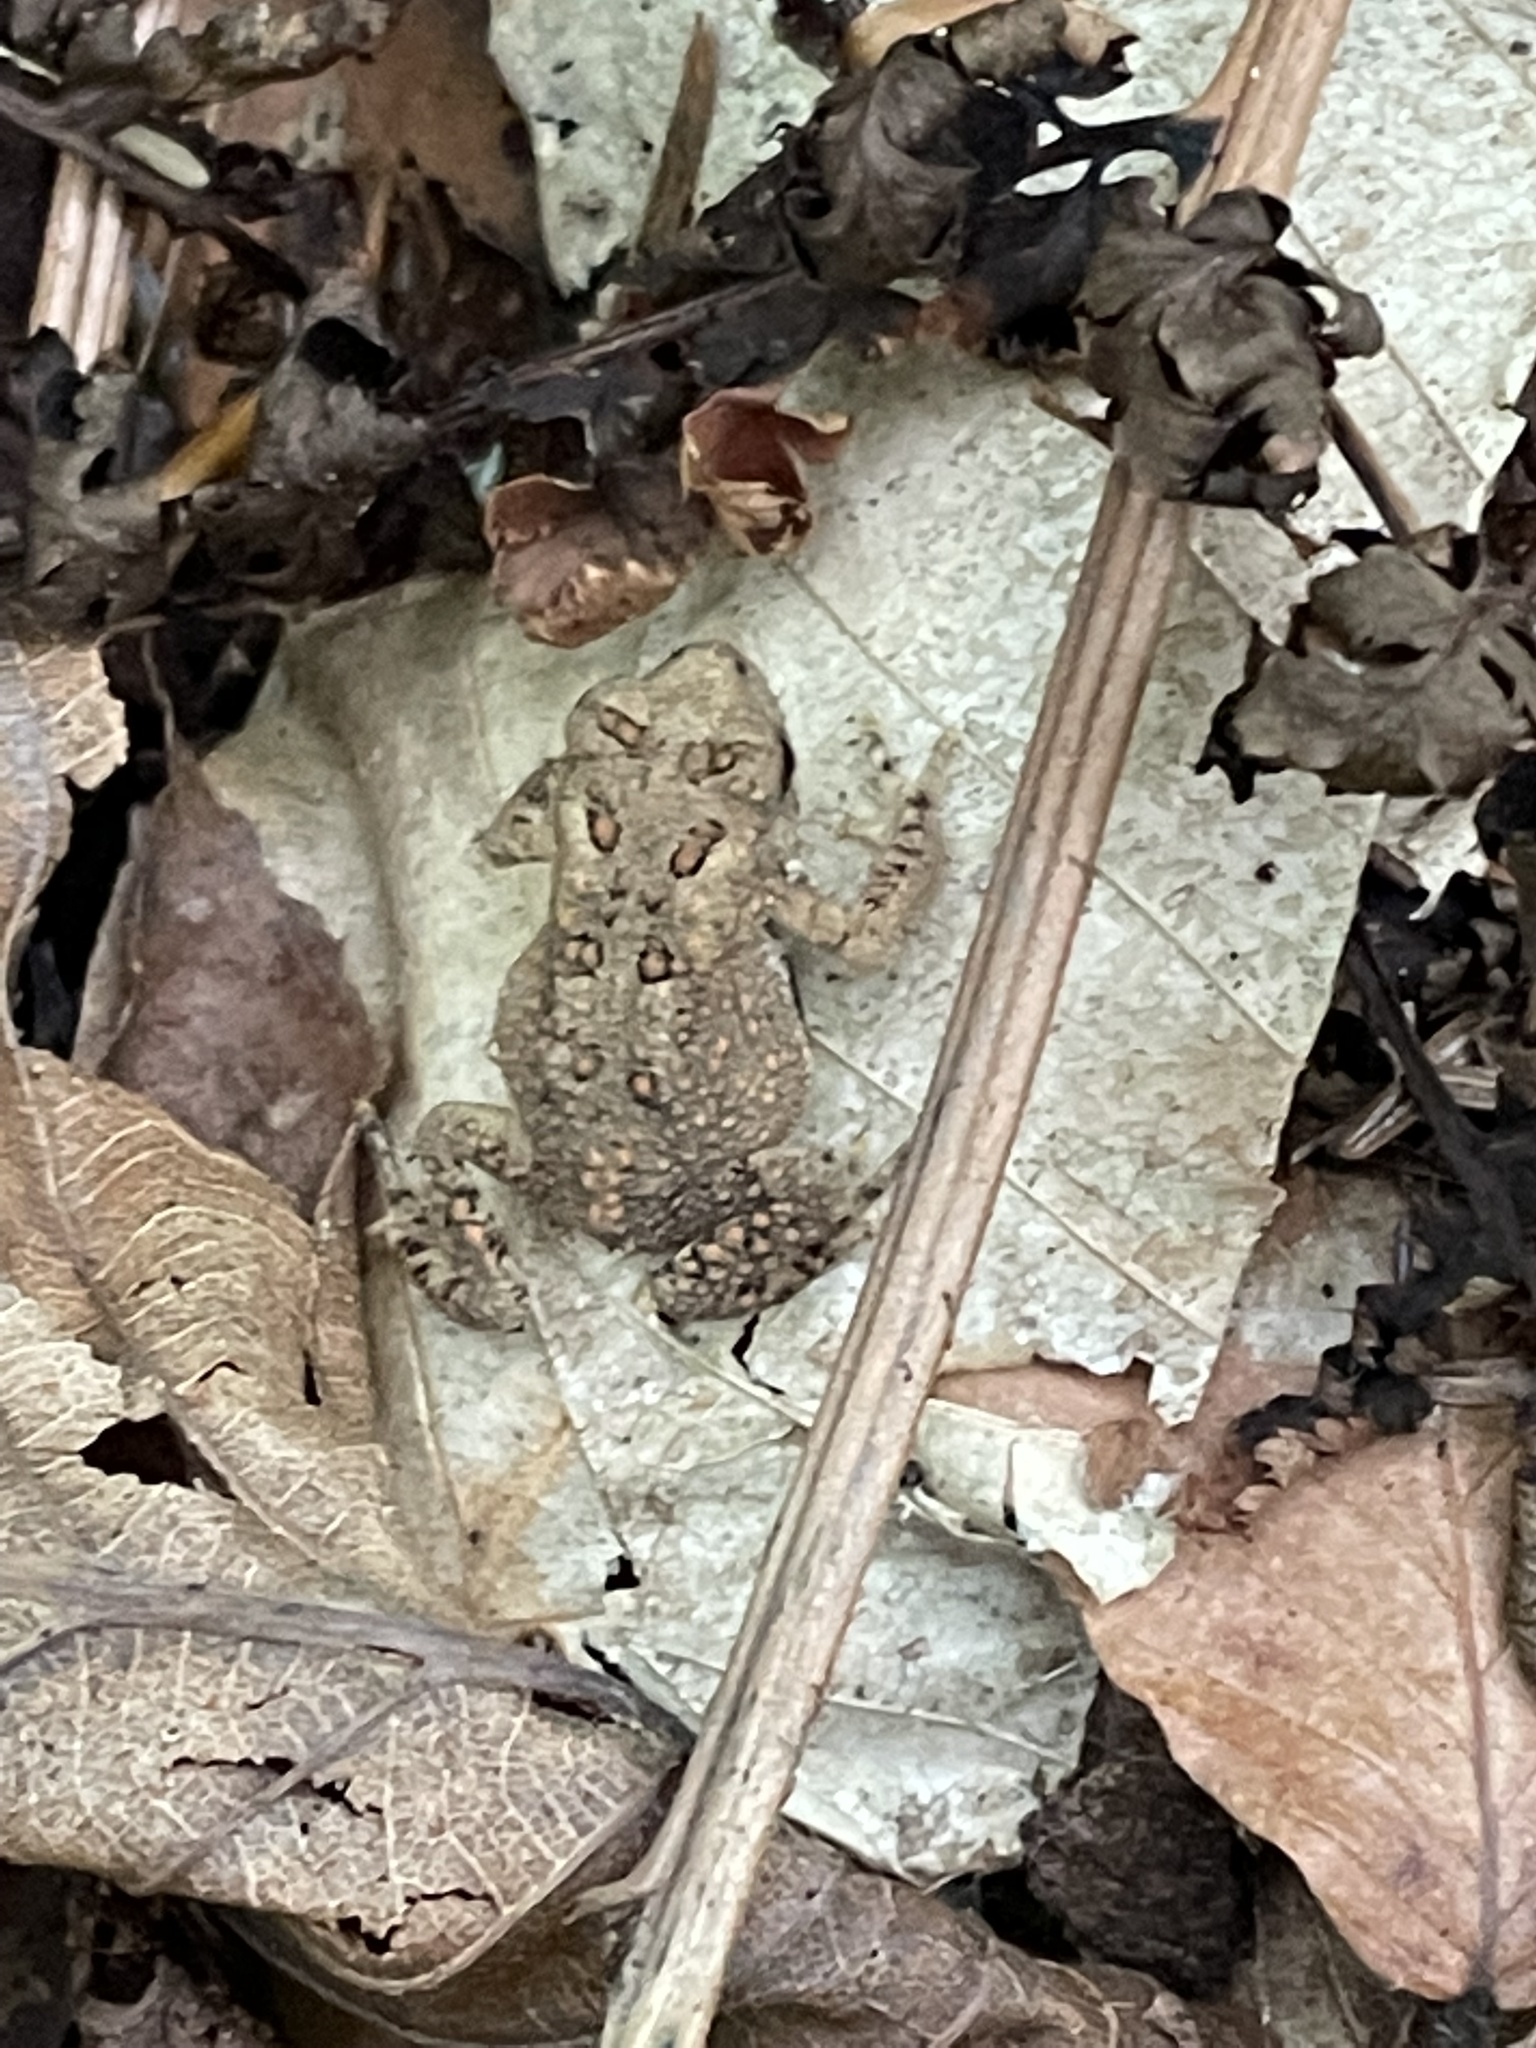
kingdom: Animalia
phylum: Chordata
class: Amphibia
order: Anura
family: Bufonidae
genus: Anaxyrus
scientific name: Anaxyrus americanus
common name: American toad
